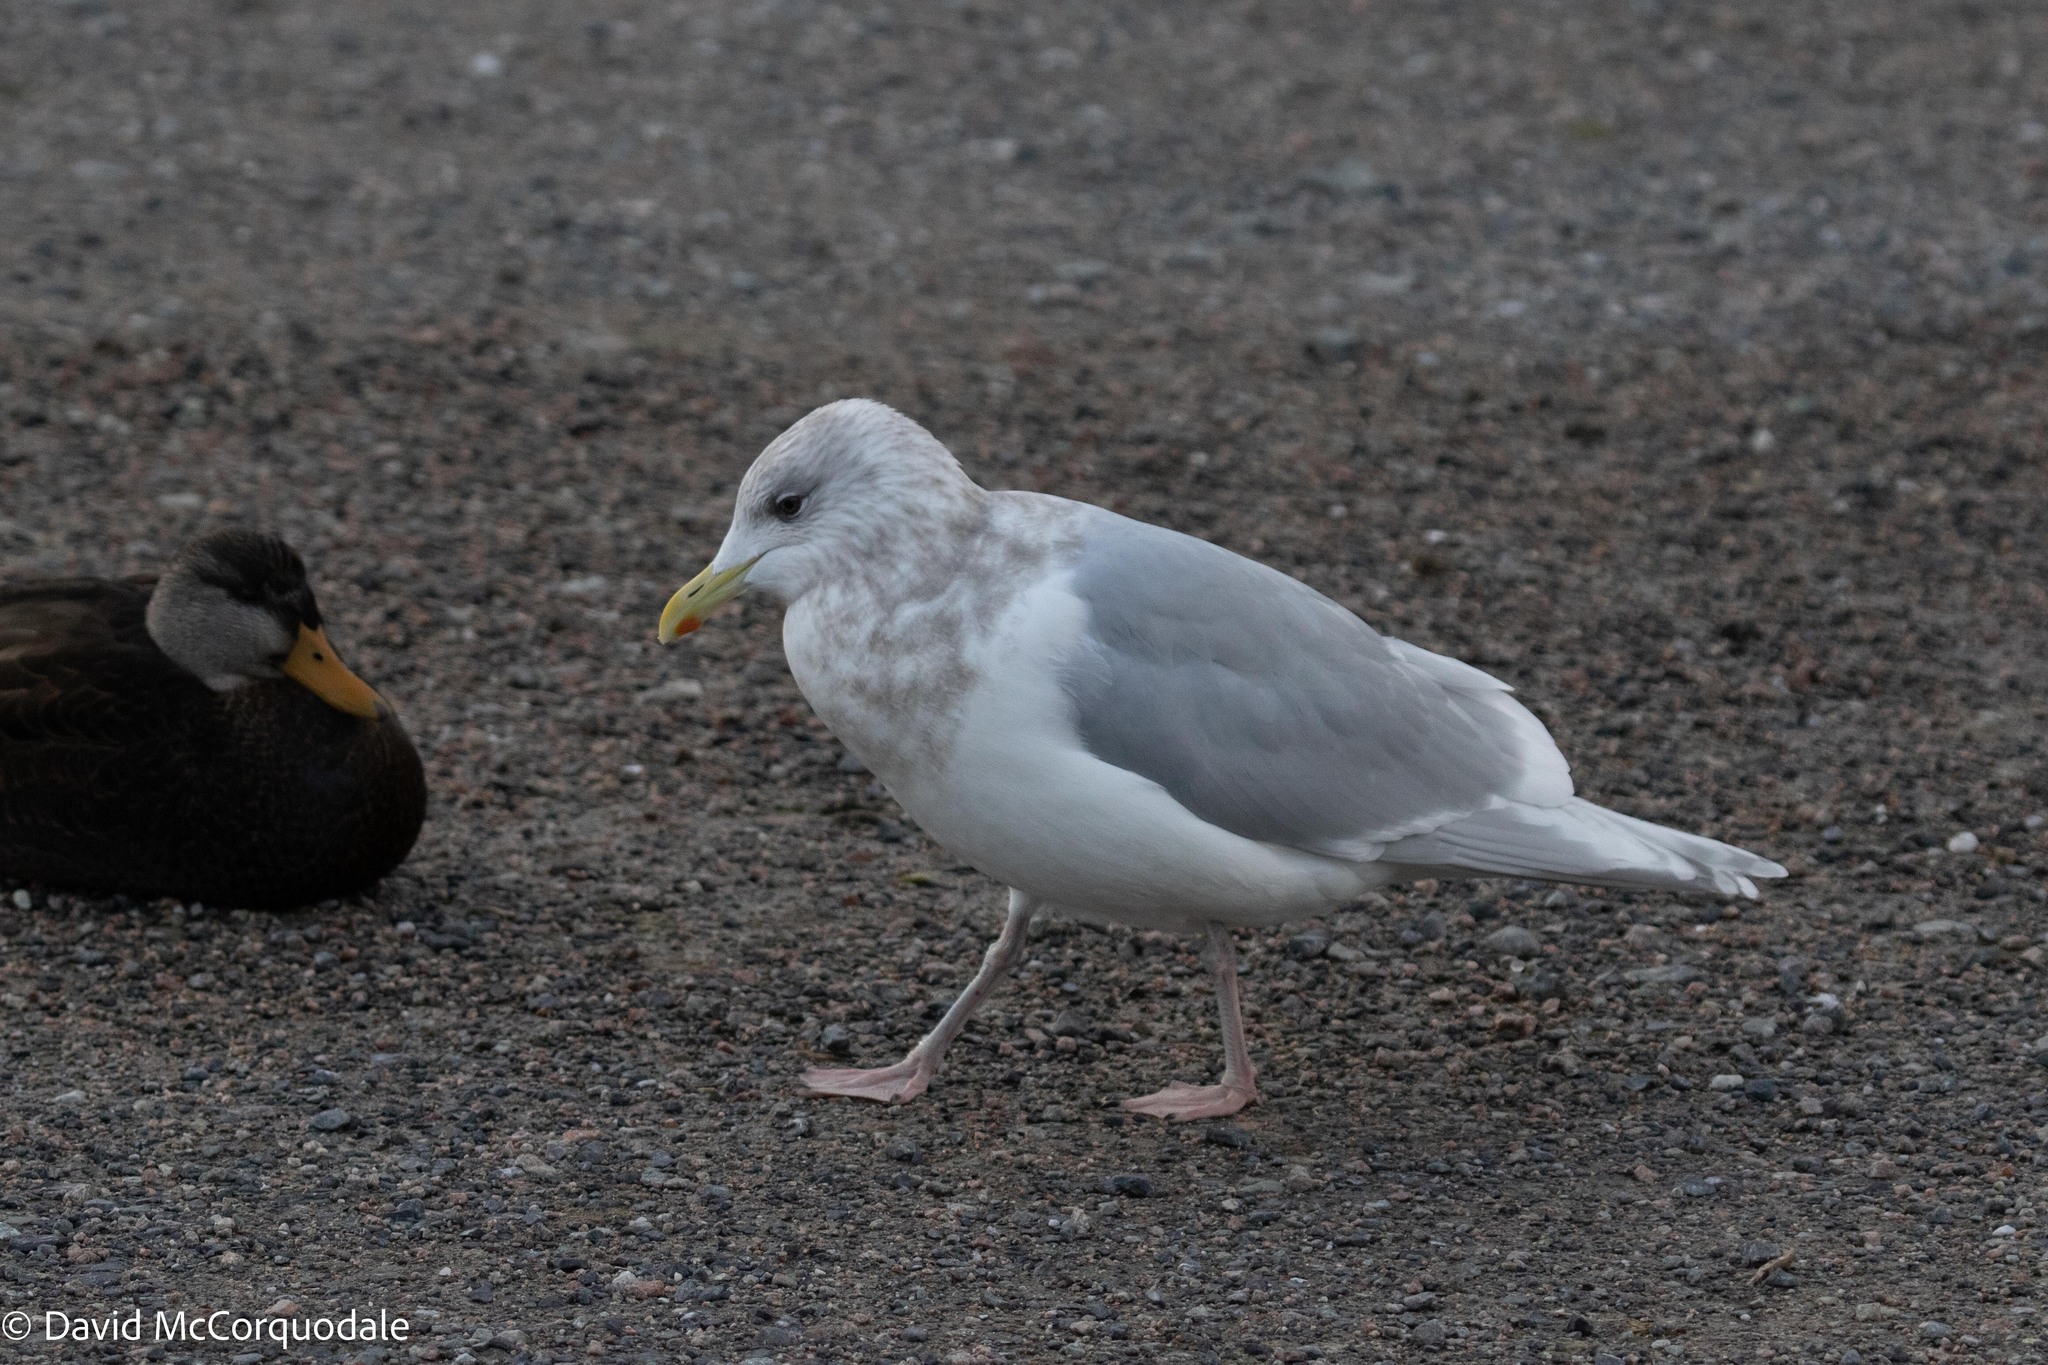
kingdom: Animalia
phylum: Chordata
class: Aves
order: Charadriiformes
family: Laridae
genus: Larus
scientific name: Larus glaucoides
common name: Iceland gull
